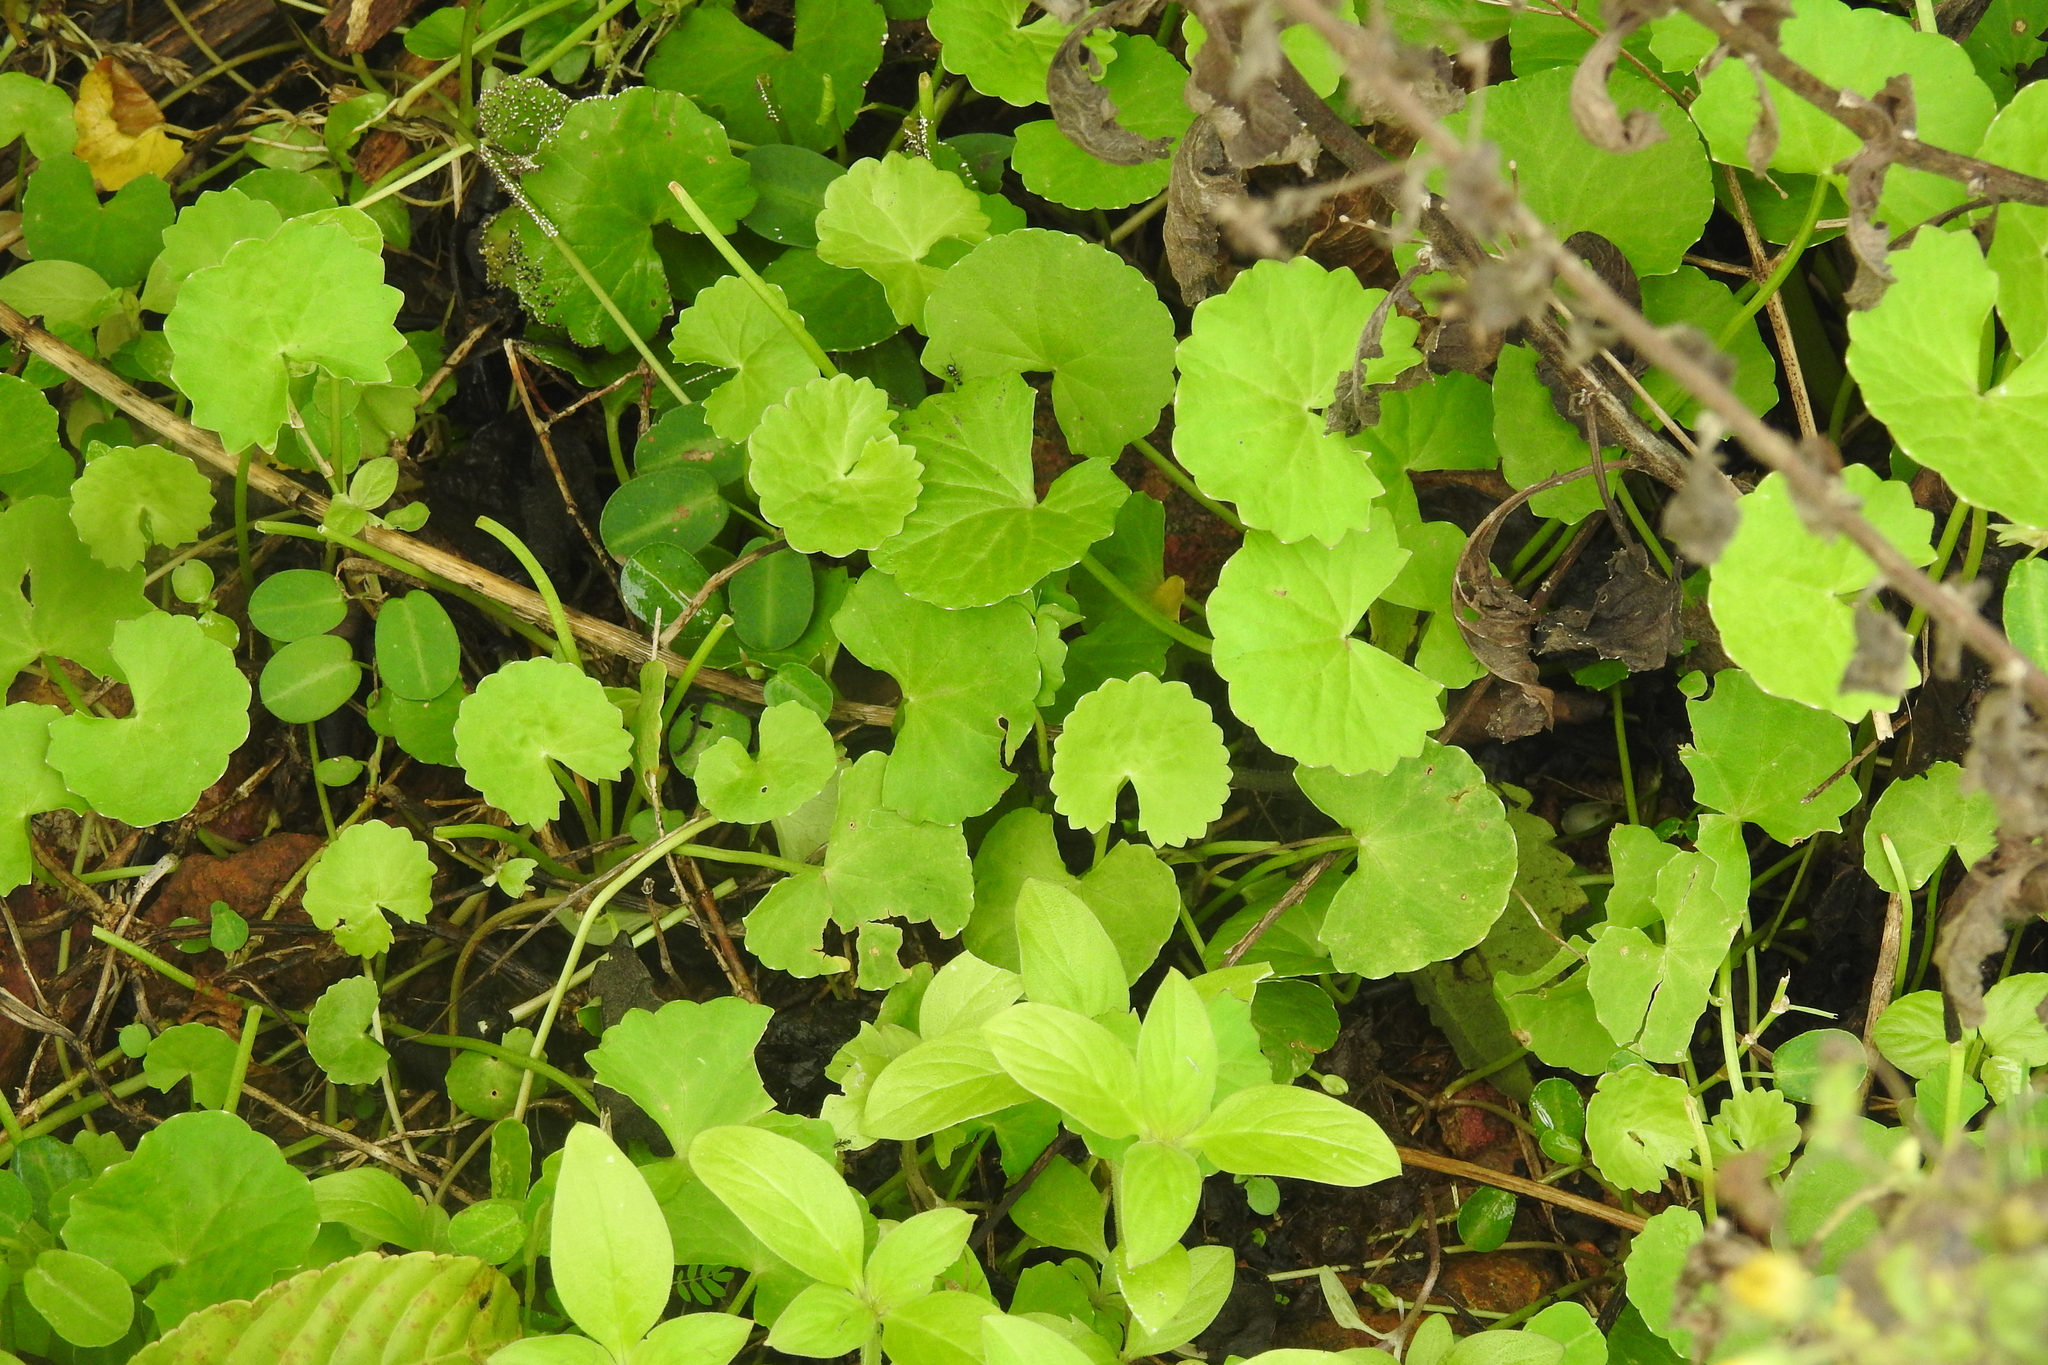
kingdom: Plantae
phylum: Tracheophyta
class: Magnoliopsida
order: Apiales
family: Apiaceae
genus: Centella
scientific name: Centella asiatica
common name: Spadeleaf
